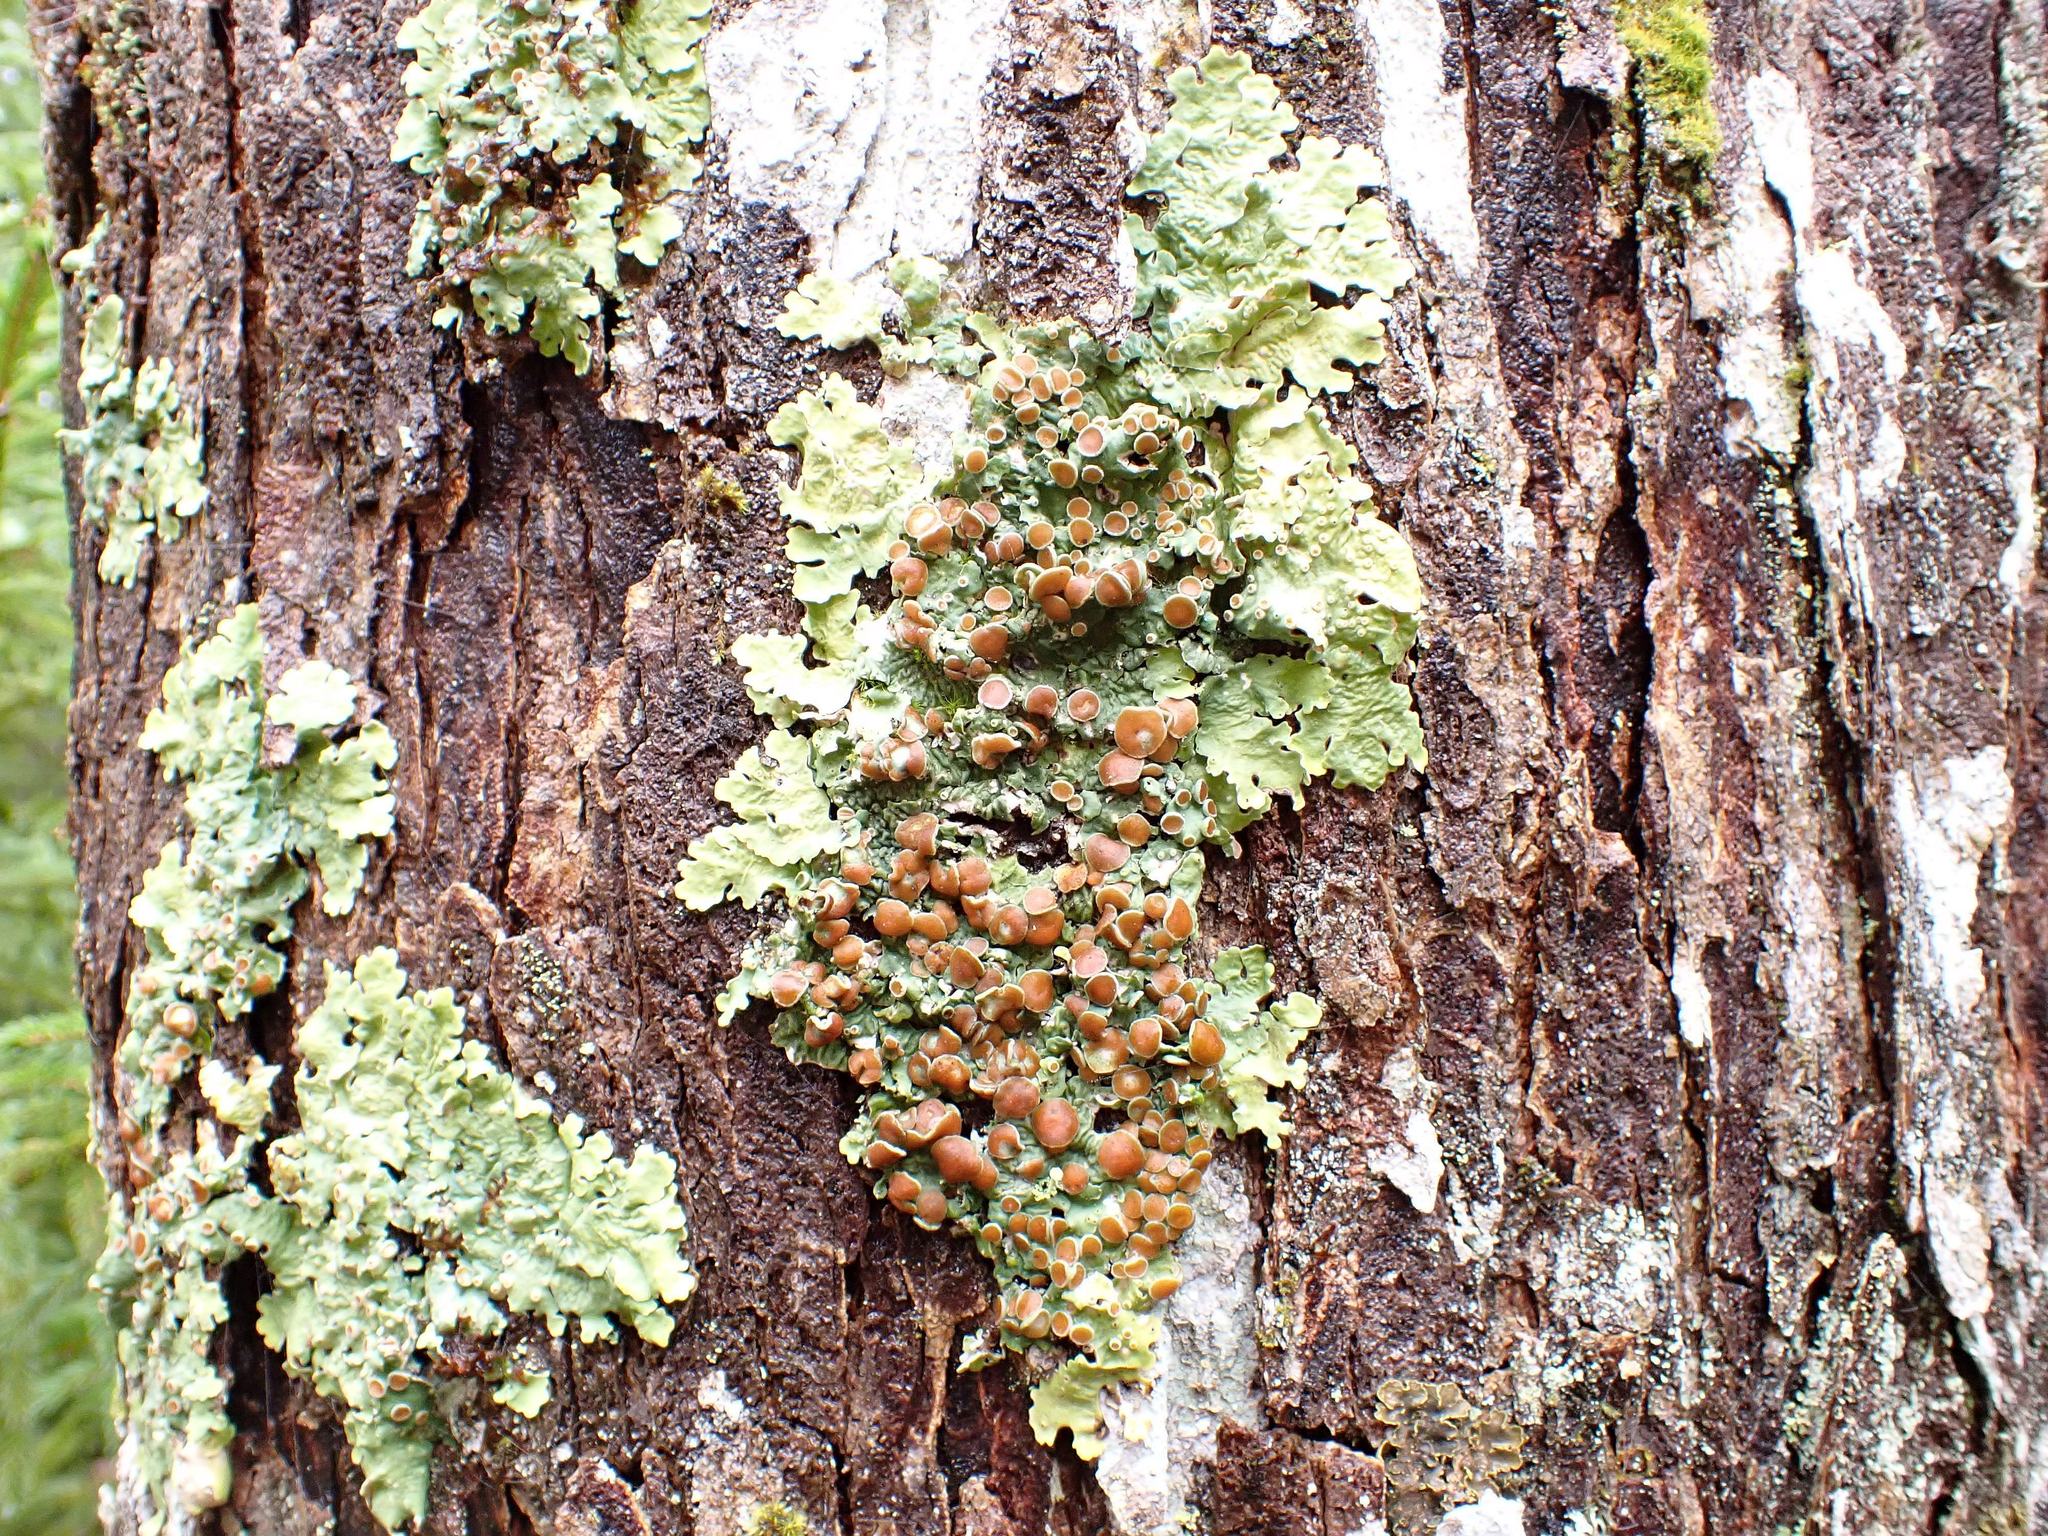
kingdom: Fungi
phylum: Ascomycota
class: Lecanoromycetes
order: Peltigerales
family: Lobariaceae
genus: Ricasolia
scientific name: Ricasolia quercizans
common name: Smooth lungwort
